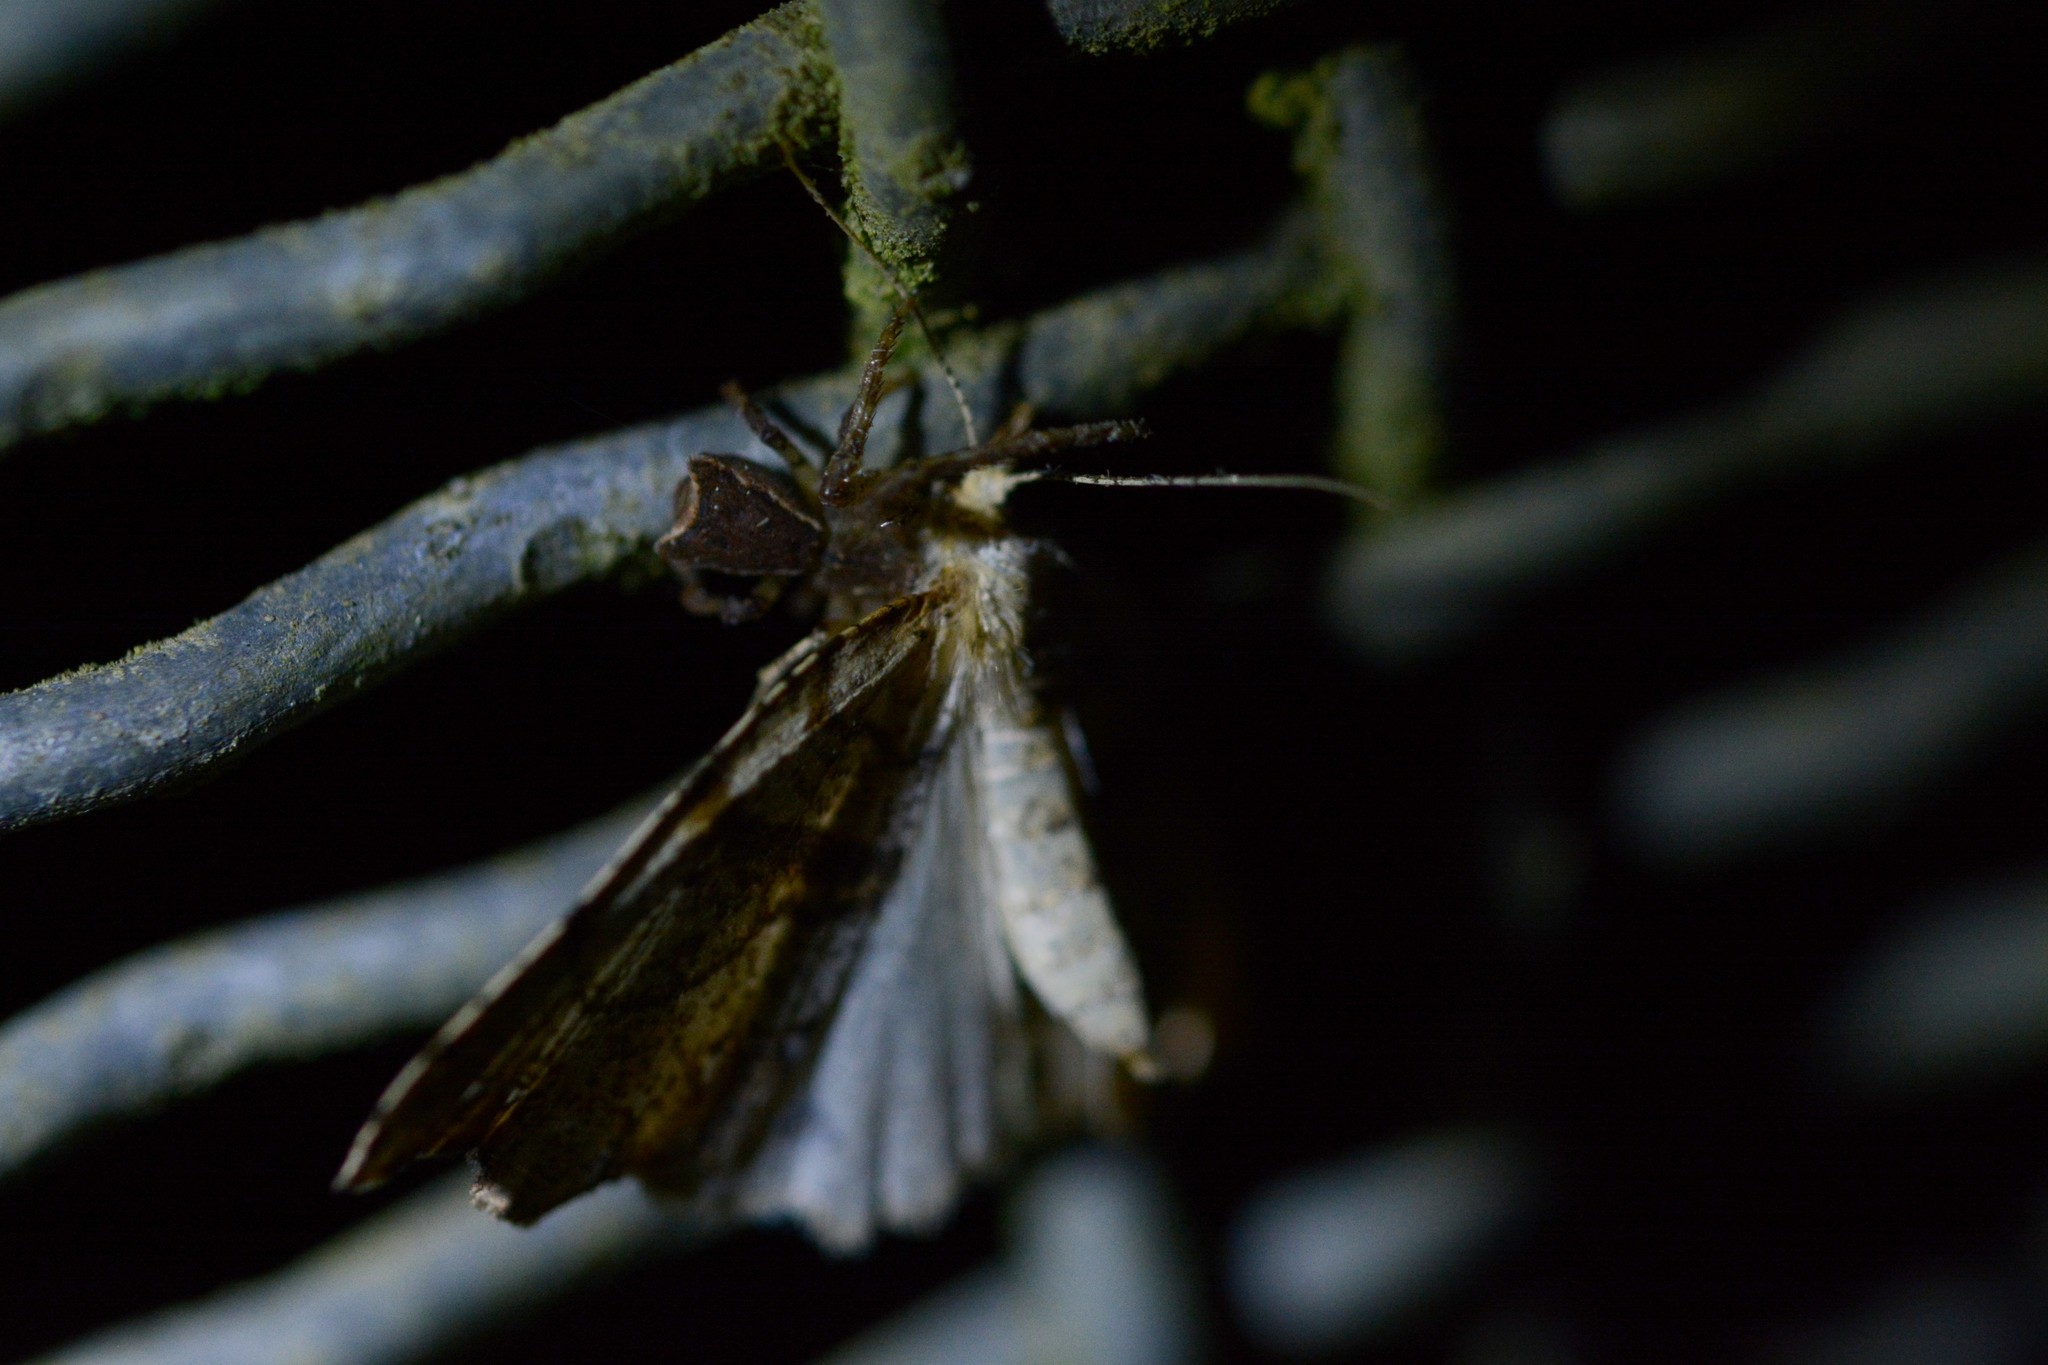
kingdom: Animalia
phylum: Arthropoda
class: Insecta
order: Lepidoptera
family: Geometridae
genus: Chalastra
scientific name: Chalastra pellurgata
